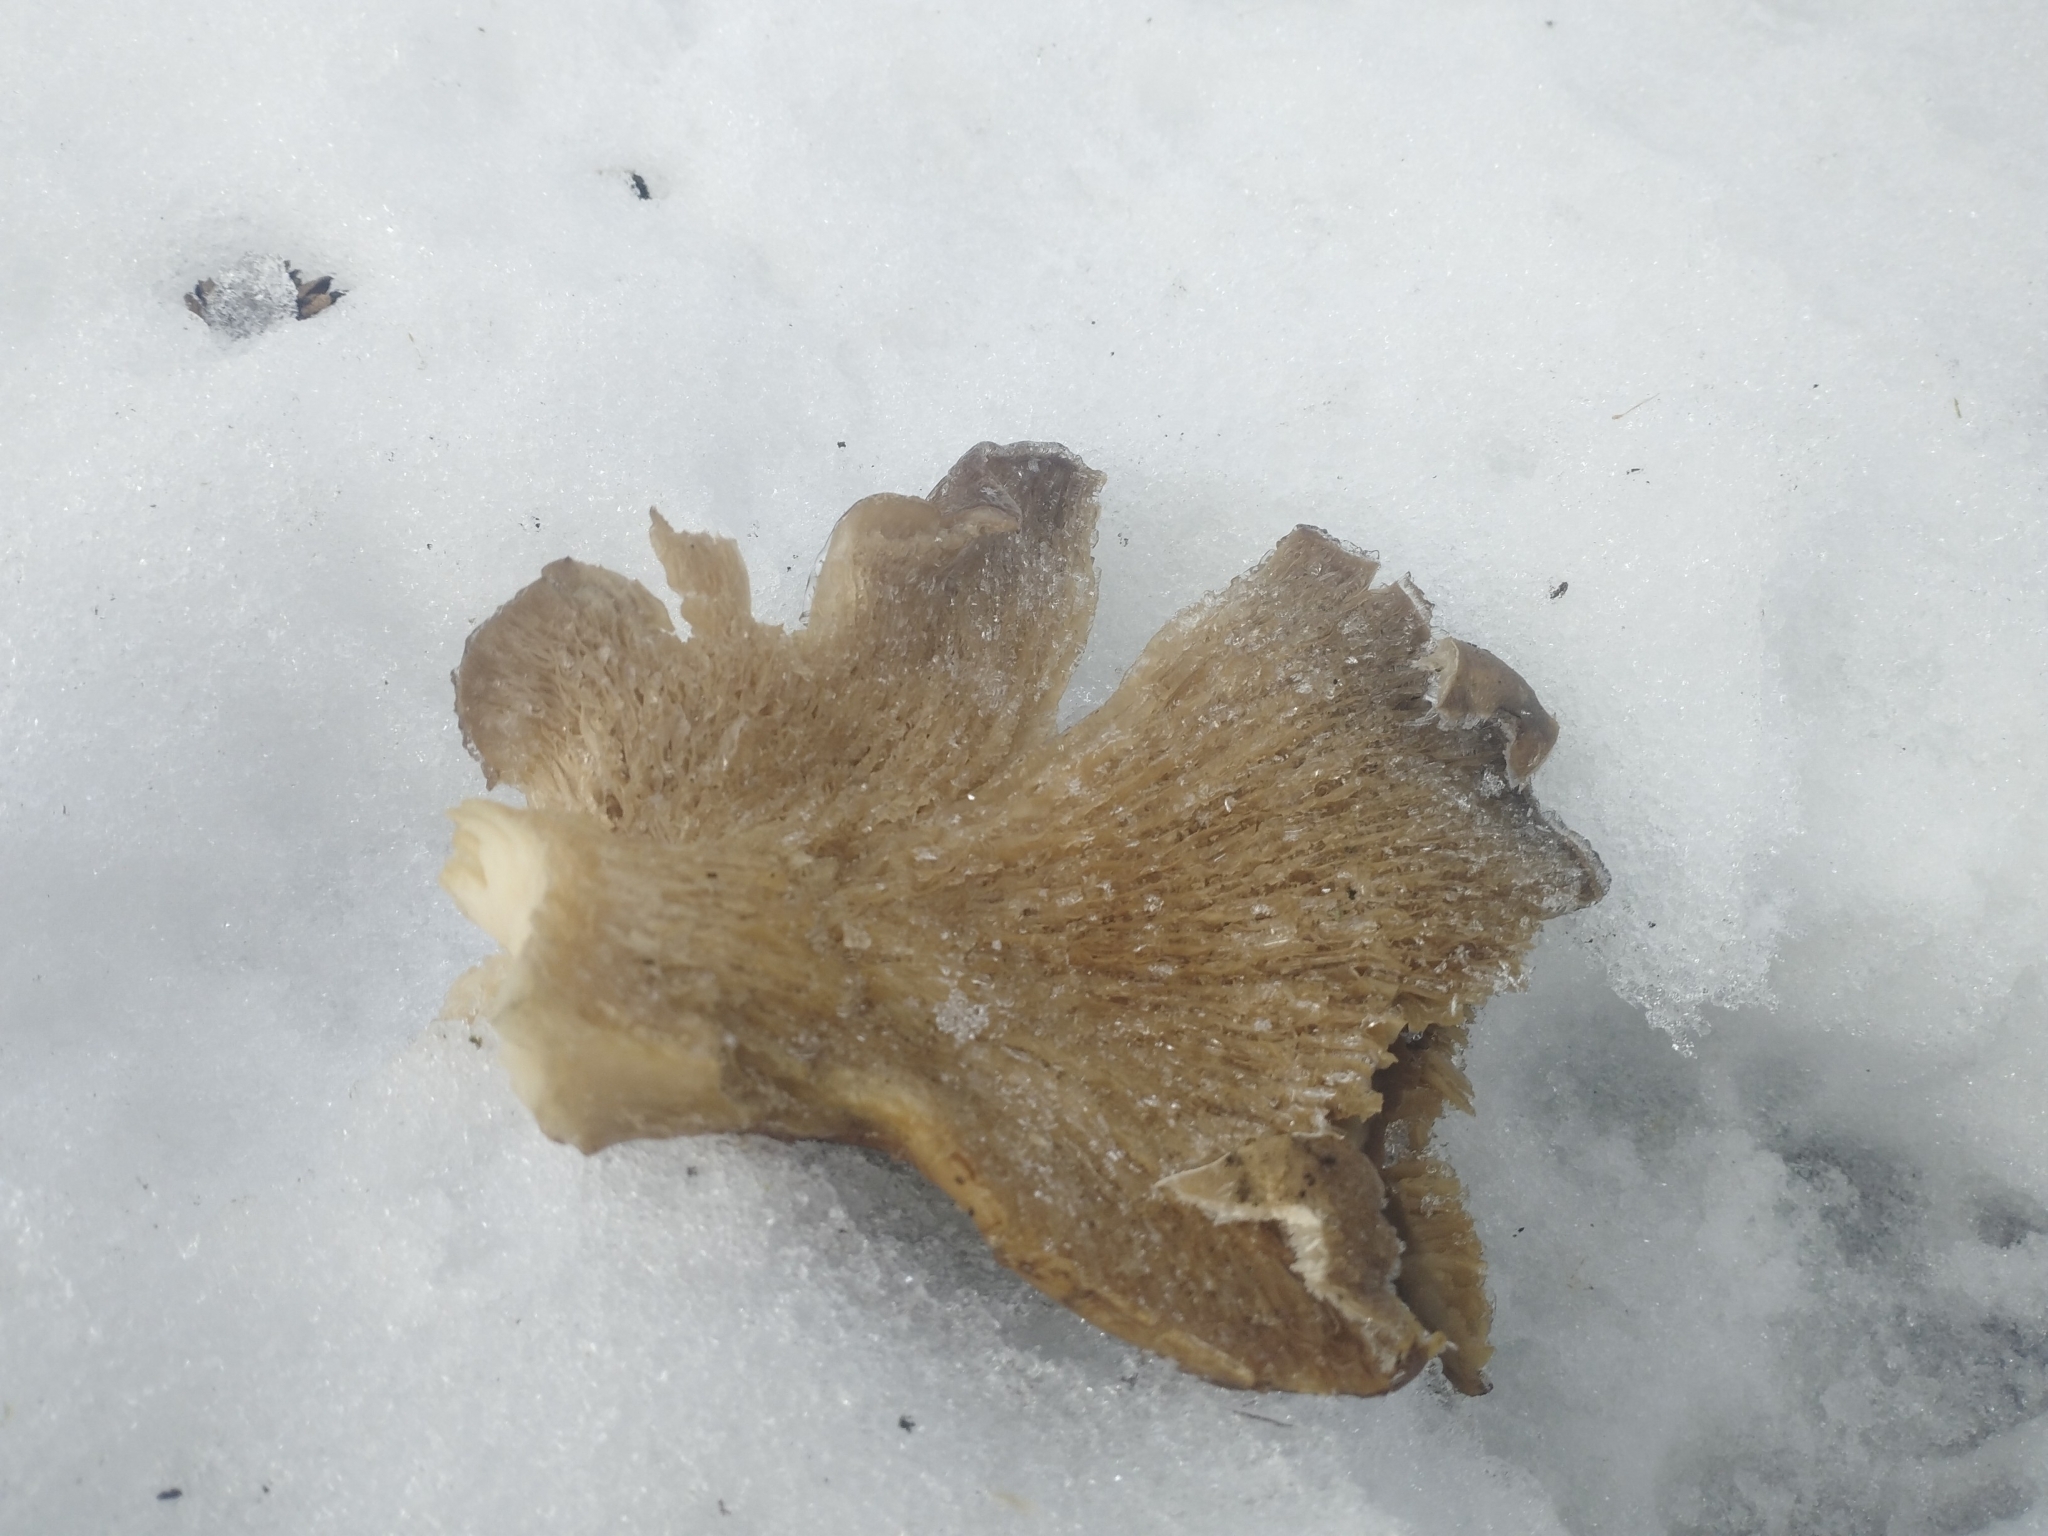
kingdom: Fungi
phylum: Basidiomycota
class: Agaricomycetes
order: Agaricales
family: Pleurotaceae
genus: Pleurotus
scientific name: Pleurotus ostreatus
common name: Oyster mushroom
